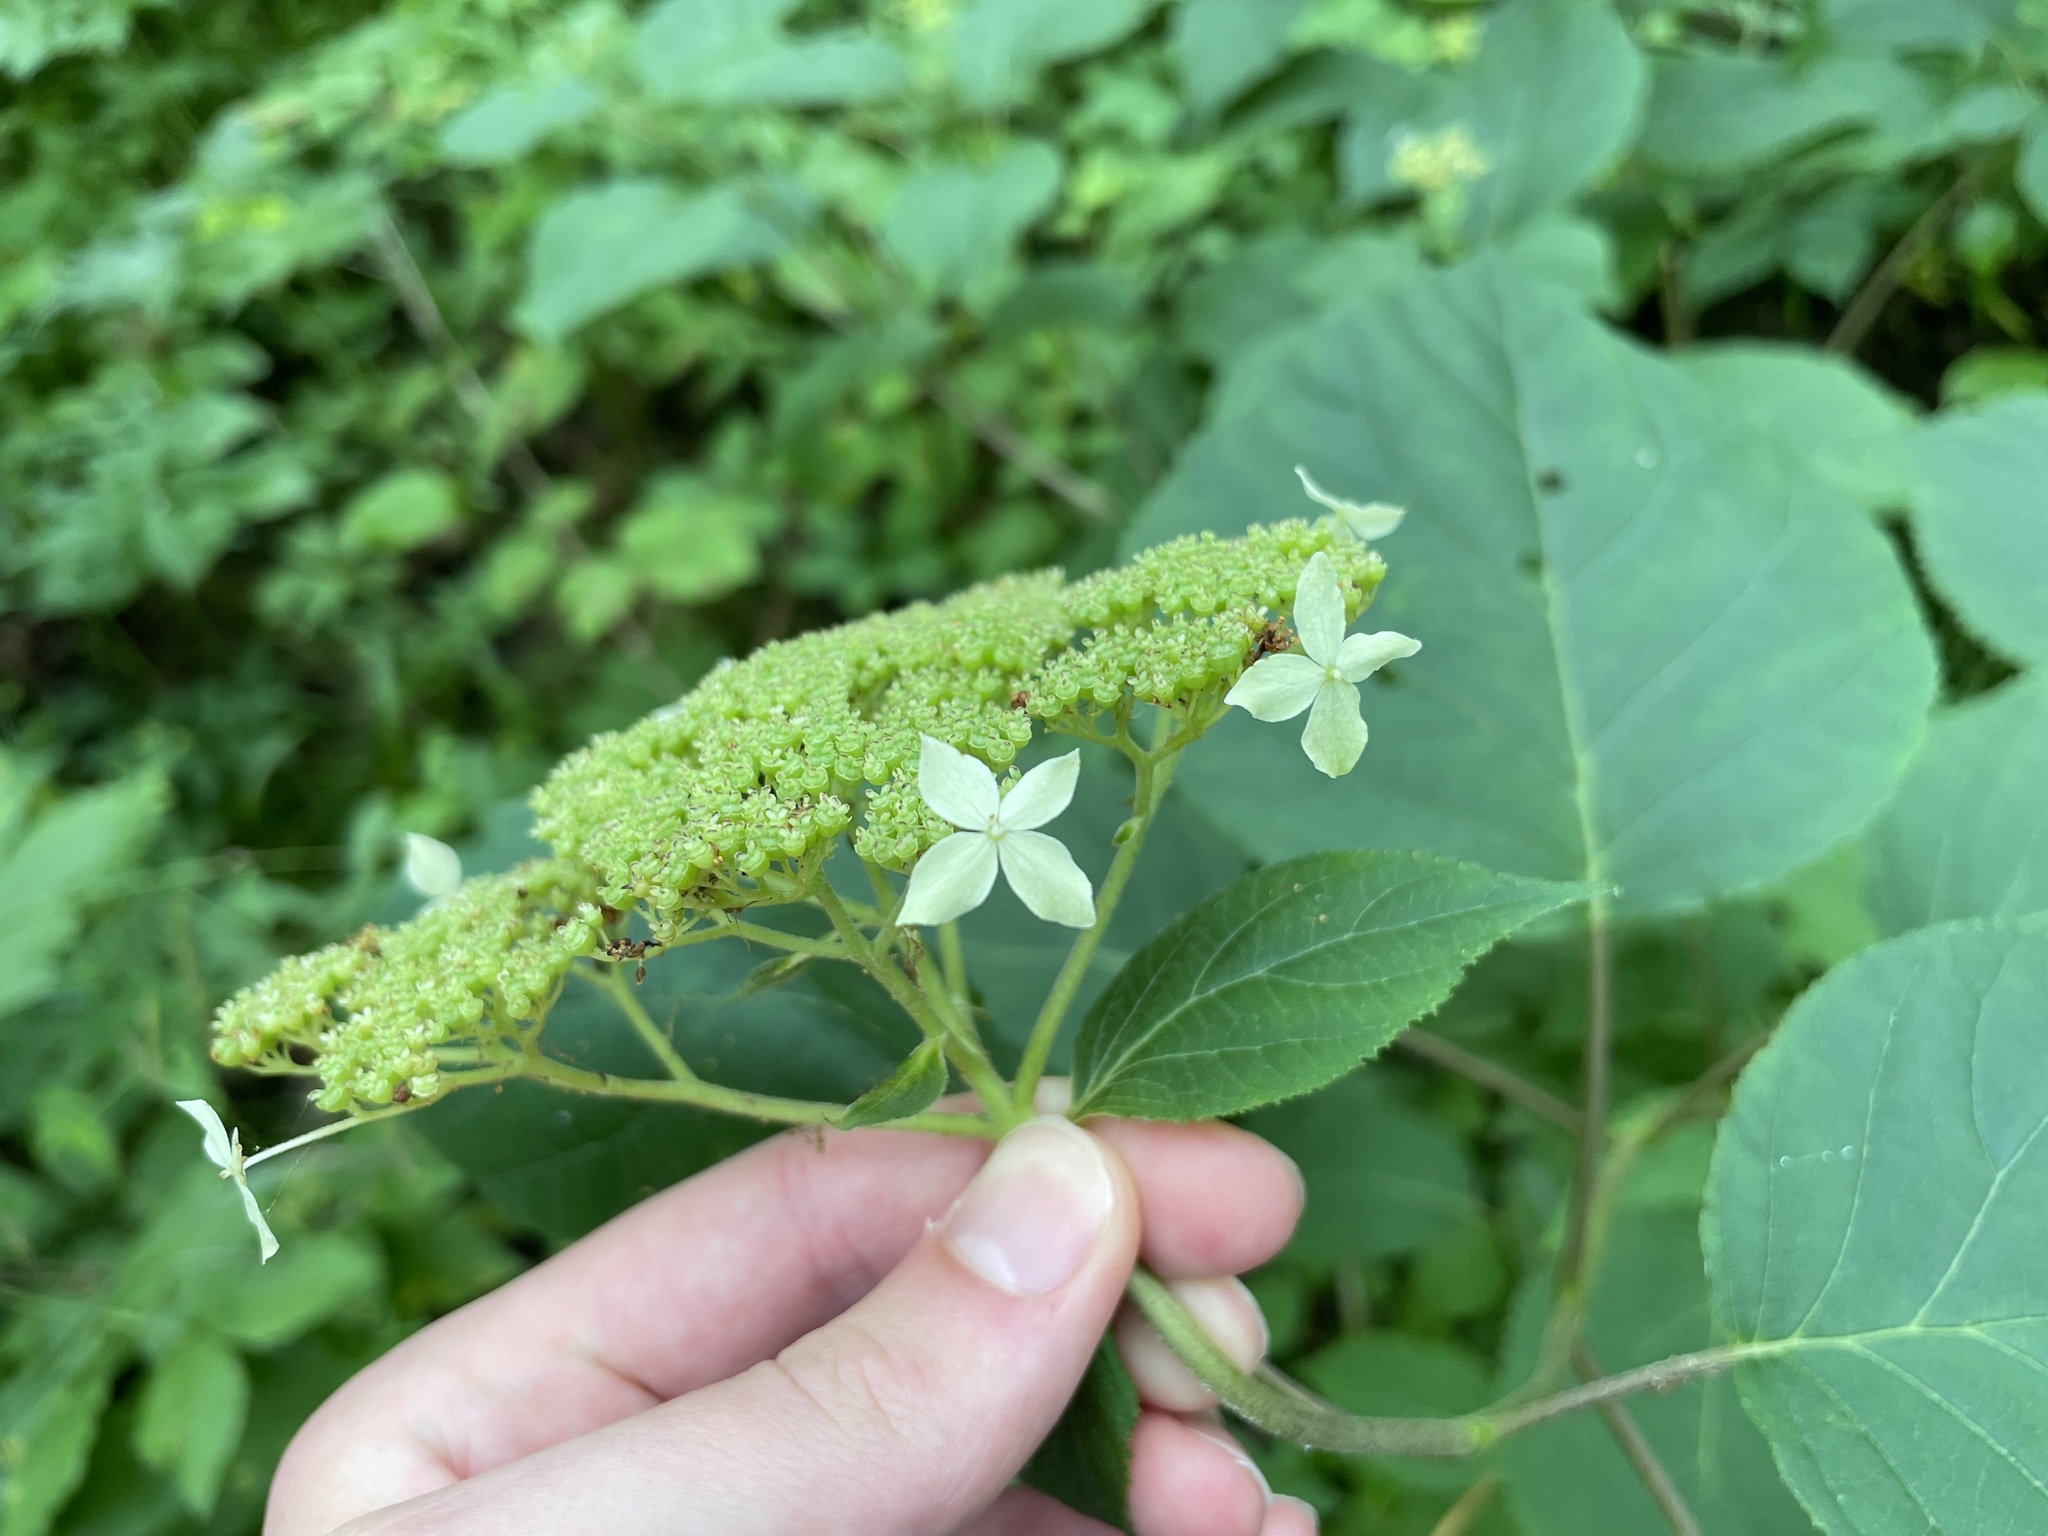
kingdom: Plantae
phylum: Tracheophyta
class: Magnoliopsida
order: Cornales
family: Hydrangeaceae
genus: Hydrangea
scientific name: Hydrangea arborescens
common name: Sevenbark
